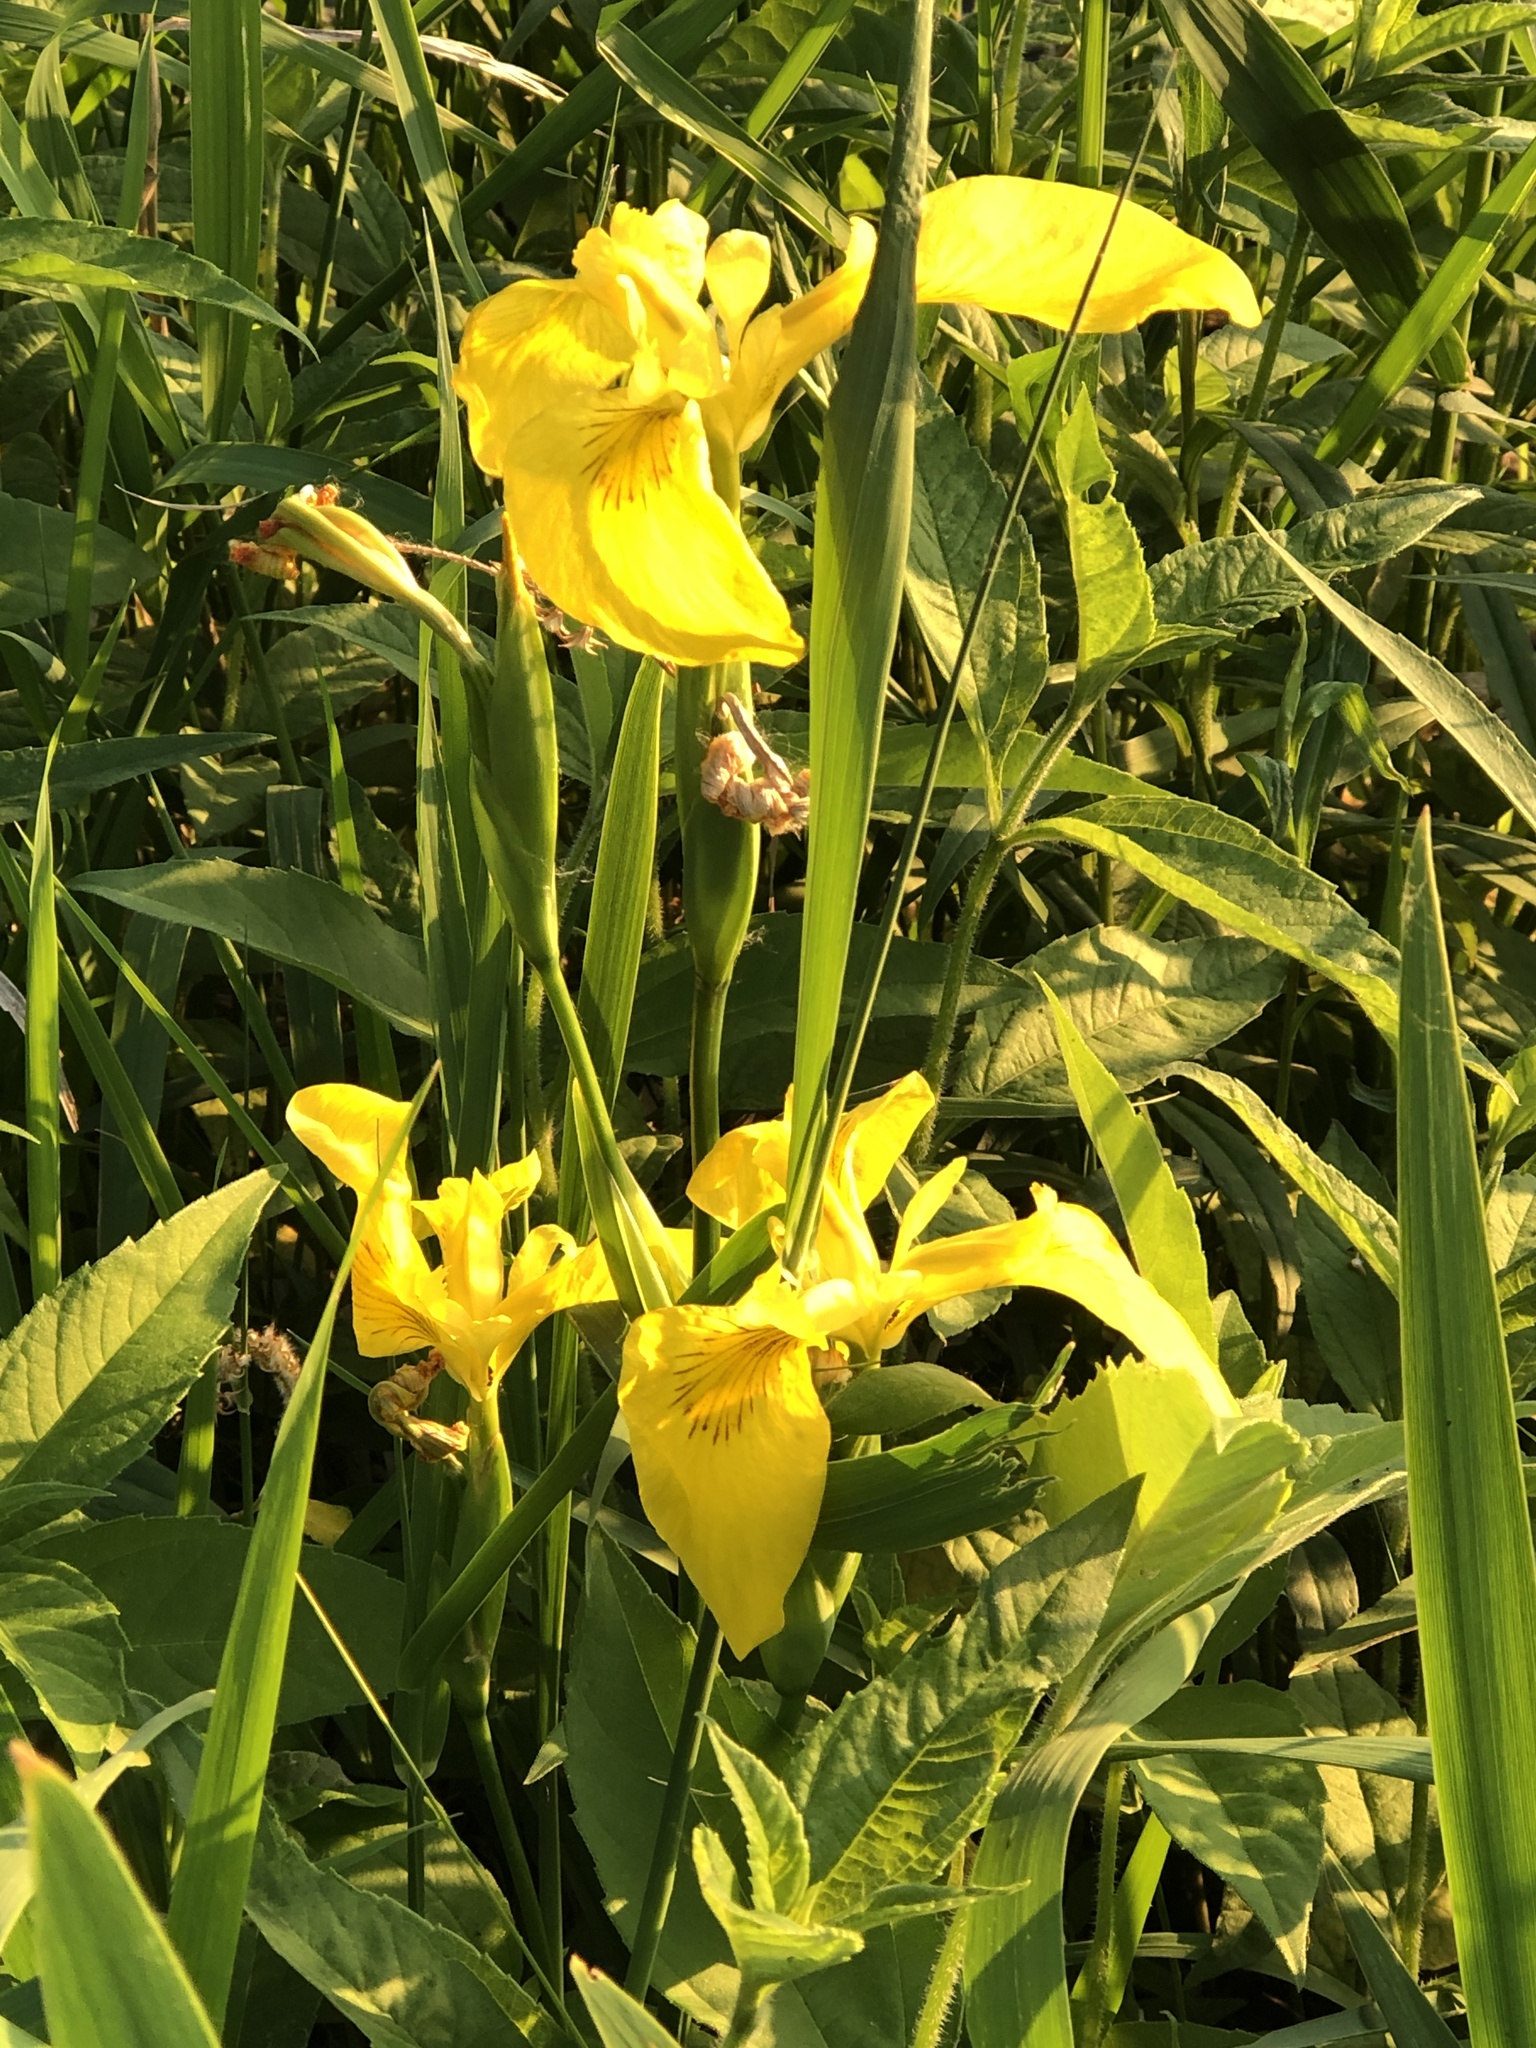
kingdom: Plantae
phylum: Tracheophyta
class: Liliopsida
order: Asparagales
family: Iridaceae
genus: Iris
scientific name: Iris pseudacorus
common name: Yellow flag
